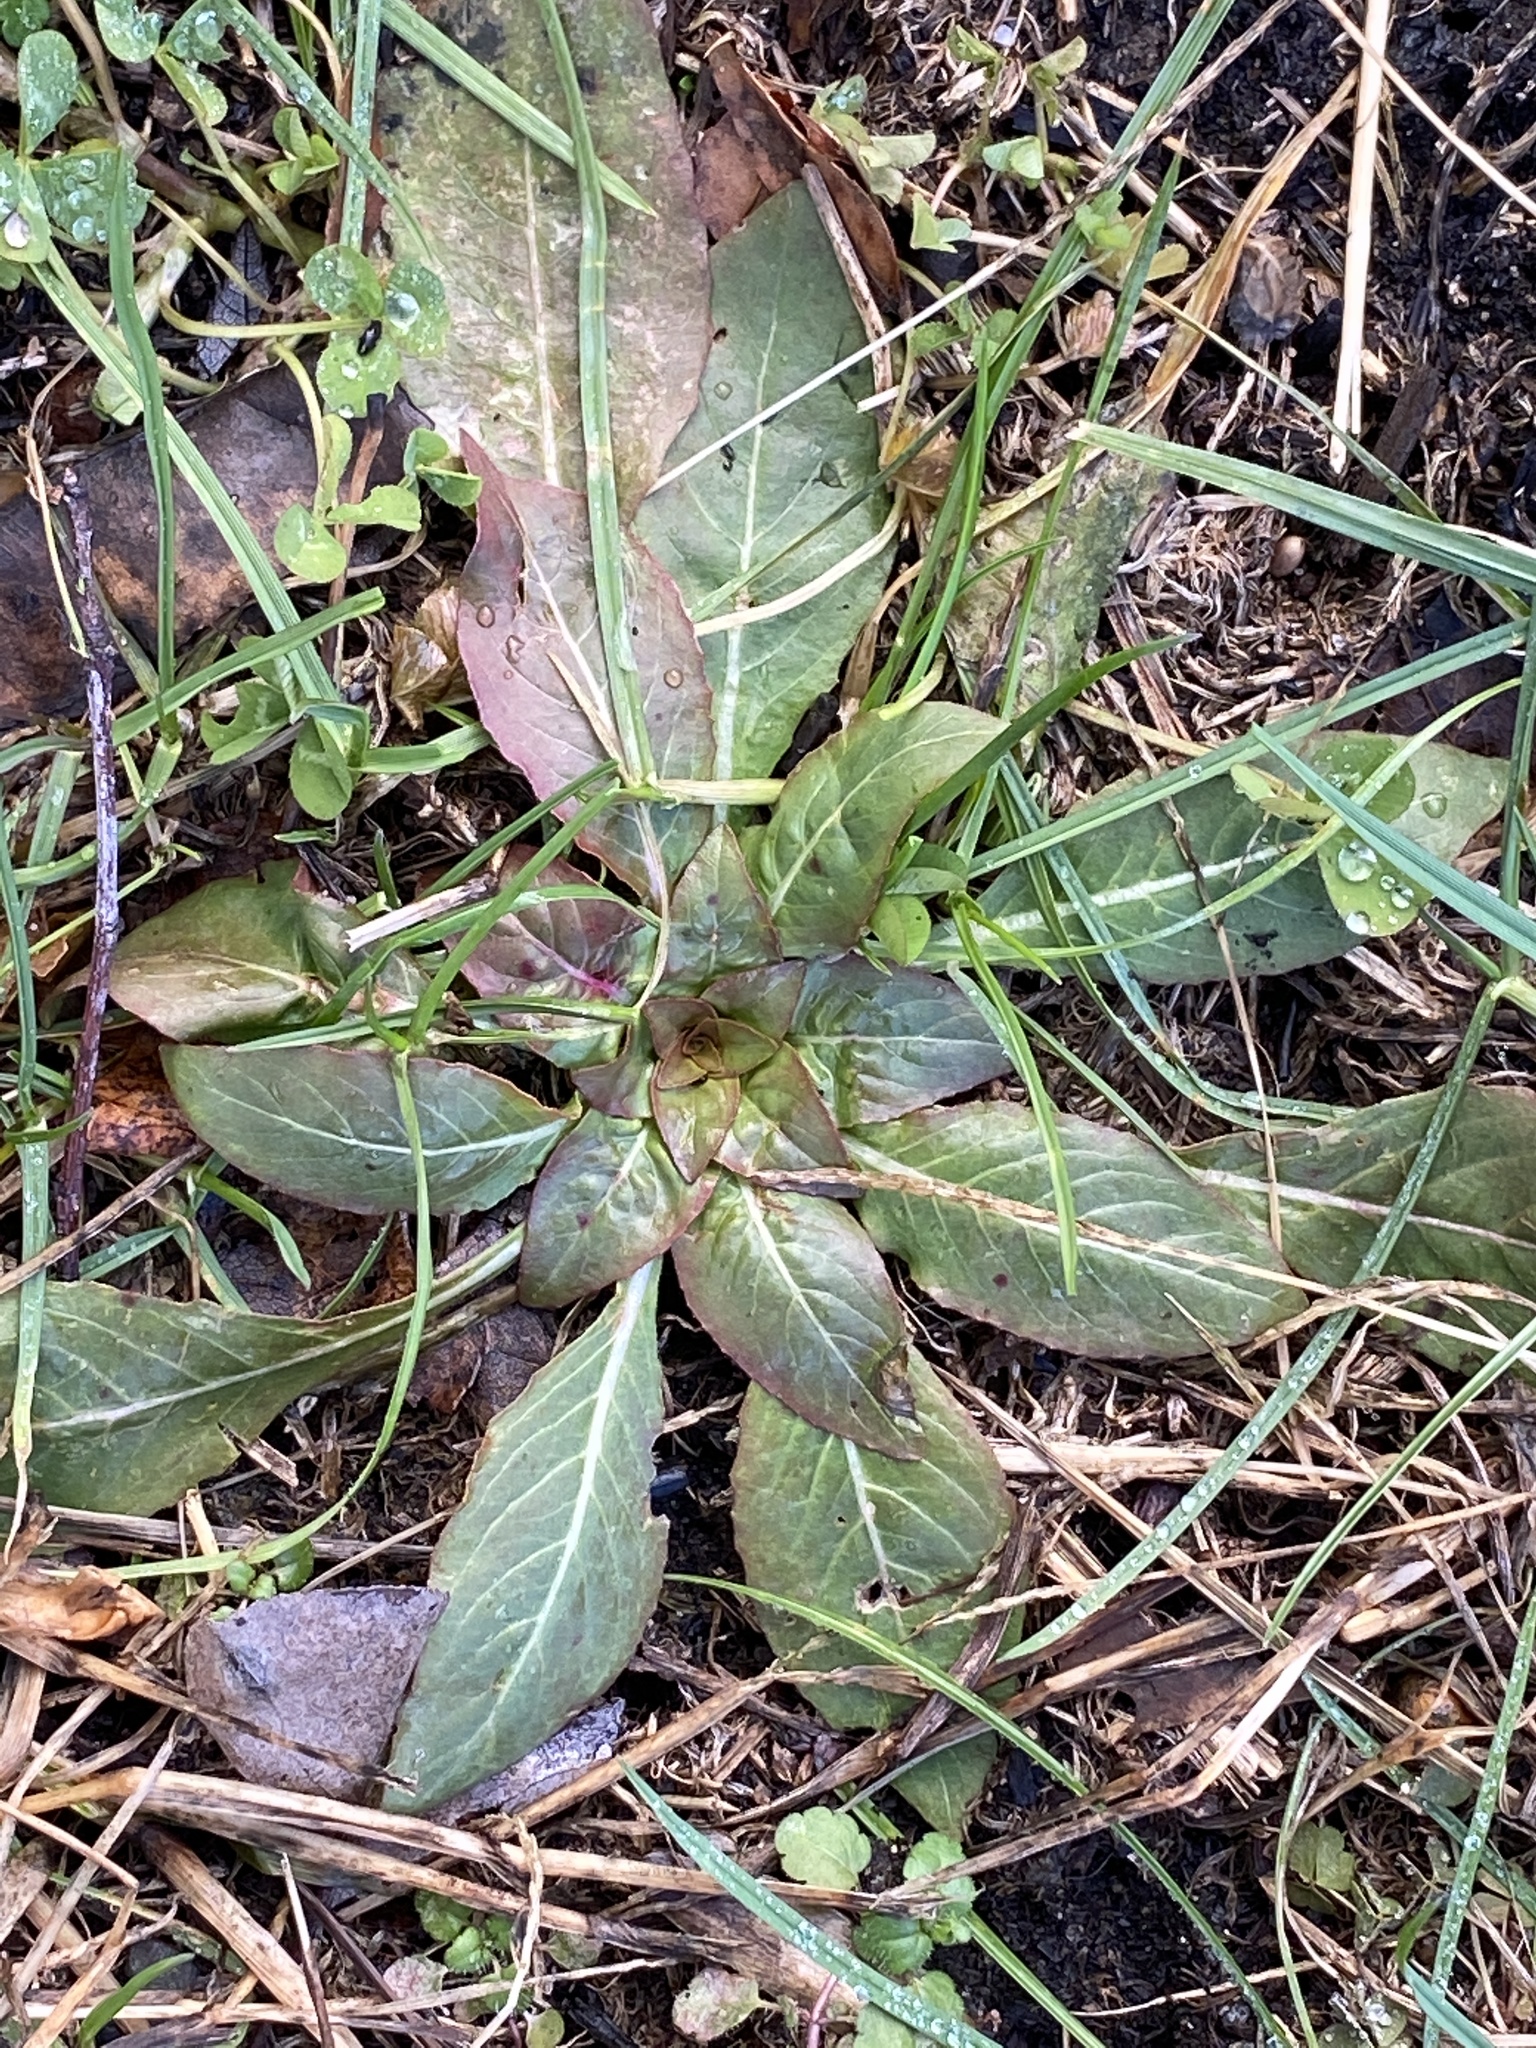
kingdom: Plantae
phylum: Tracheophyta
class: Magnoliopsida
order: Myrtales
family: Onagraceae
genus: Oenothera
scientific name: Oenothera biennis
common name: Common evening-primrose
